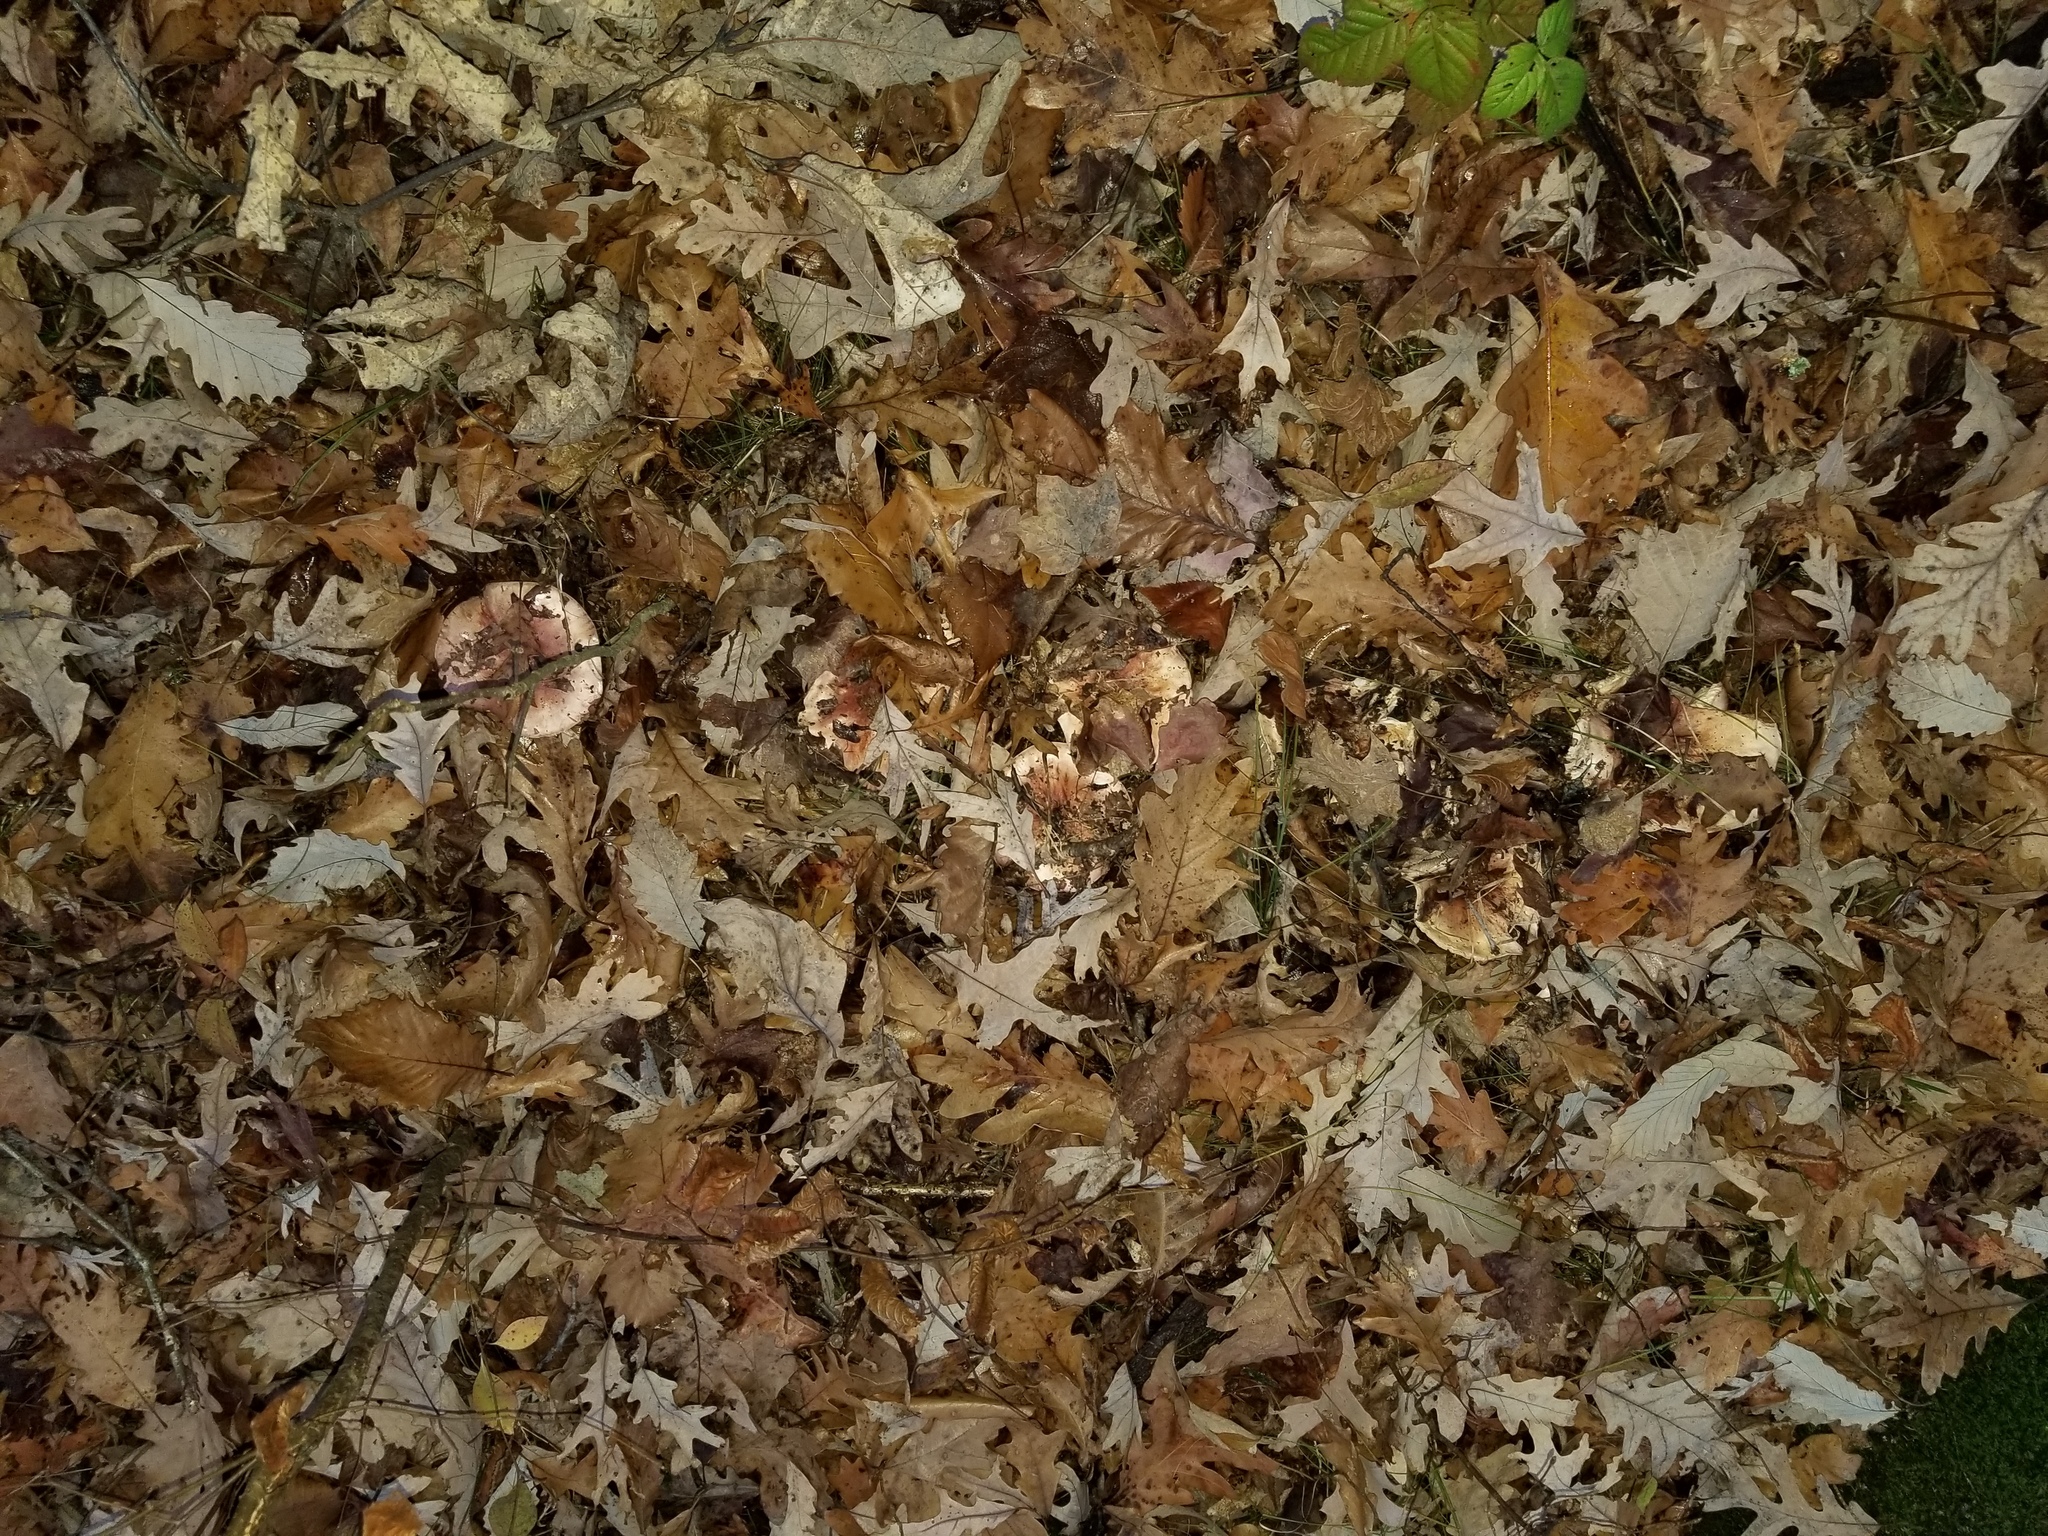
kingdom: Fungi
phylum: Basidiomycota
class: Agaricomycetes
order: Agaricales
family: Hygrophoraceae
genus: Hygrophorus
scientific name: Hygrophorus russula
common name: Pinkmottle woodwax
